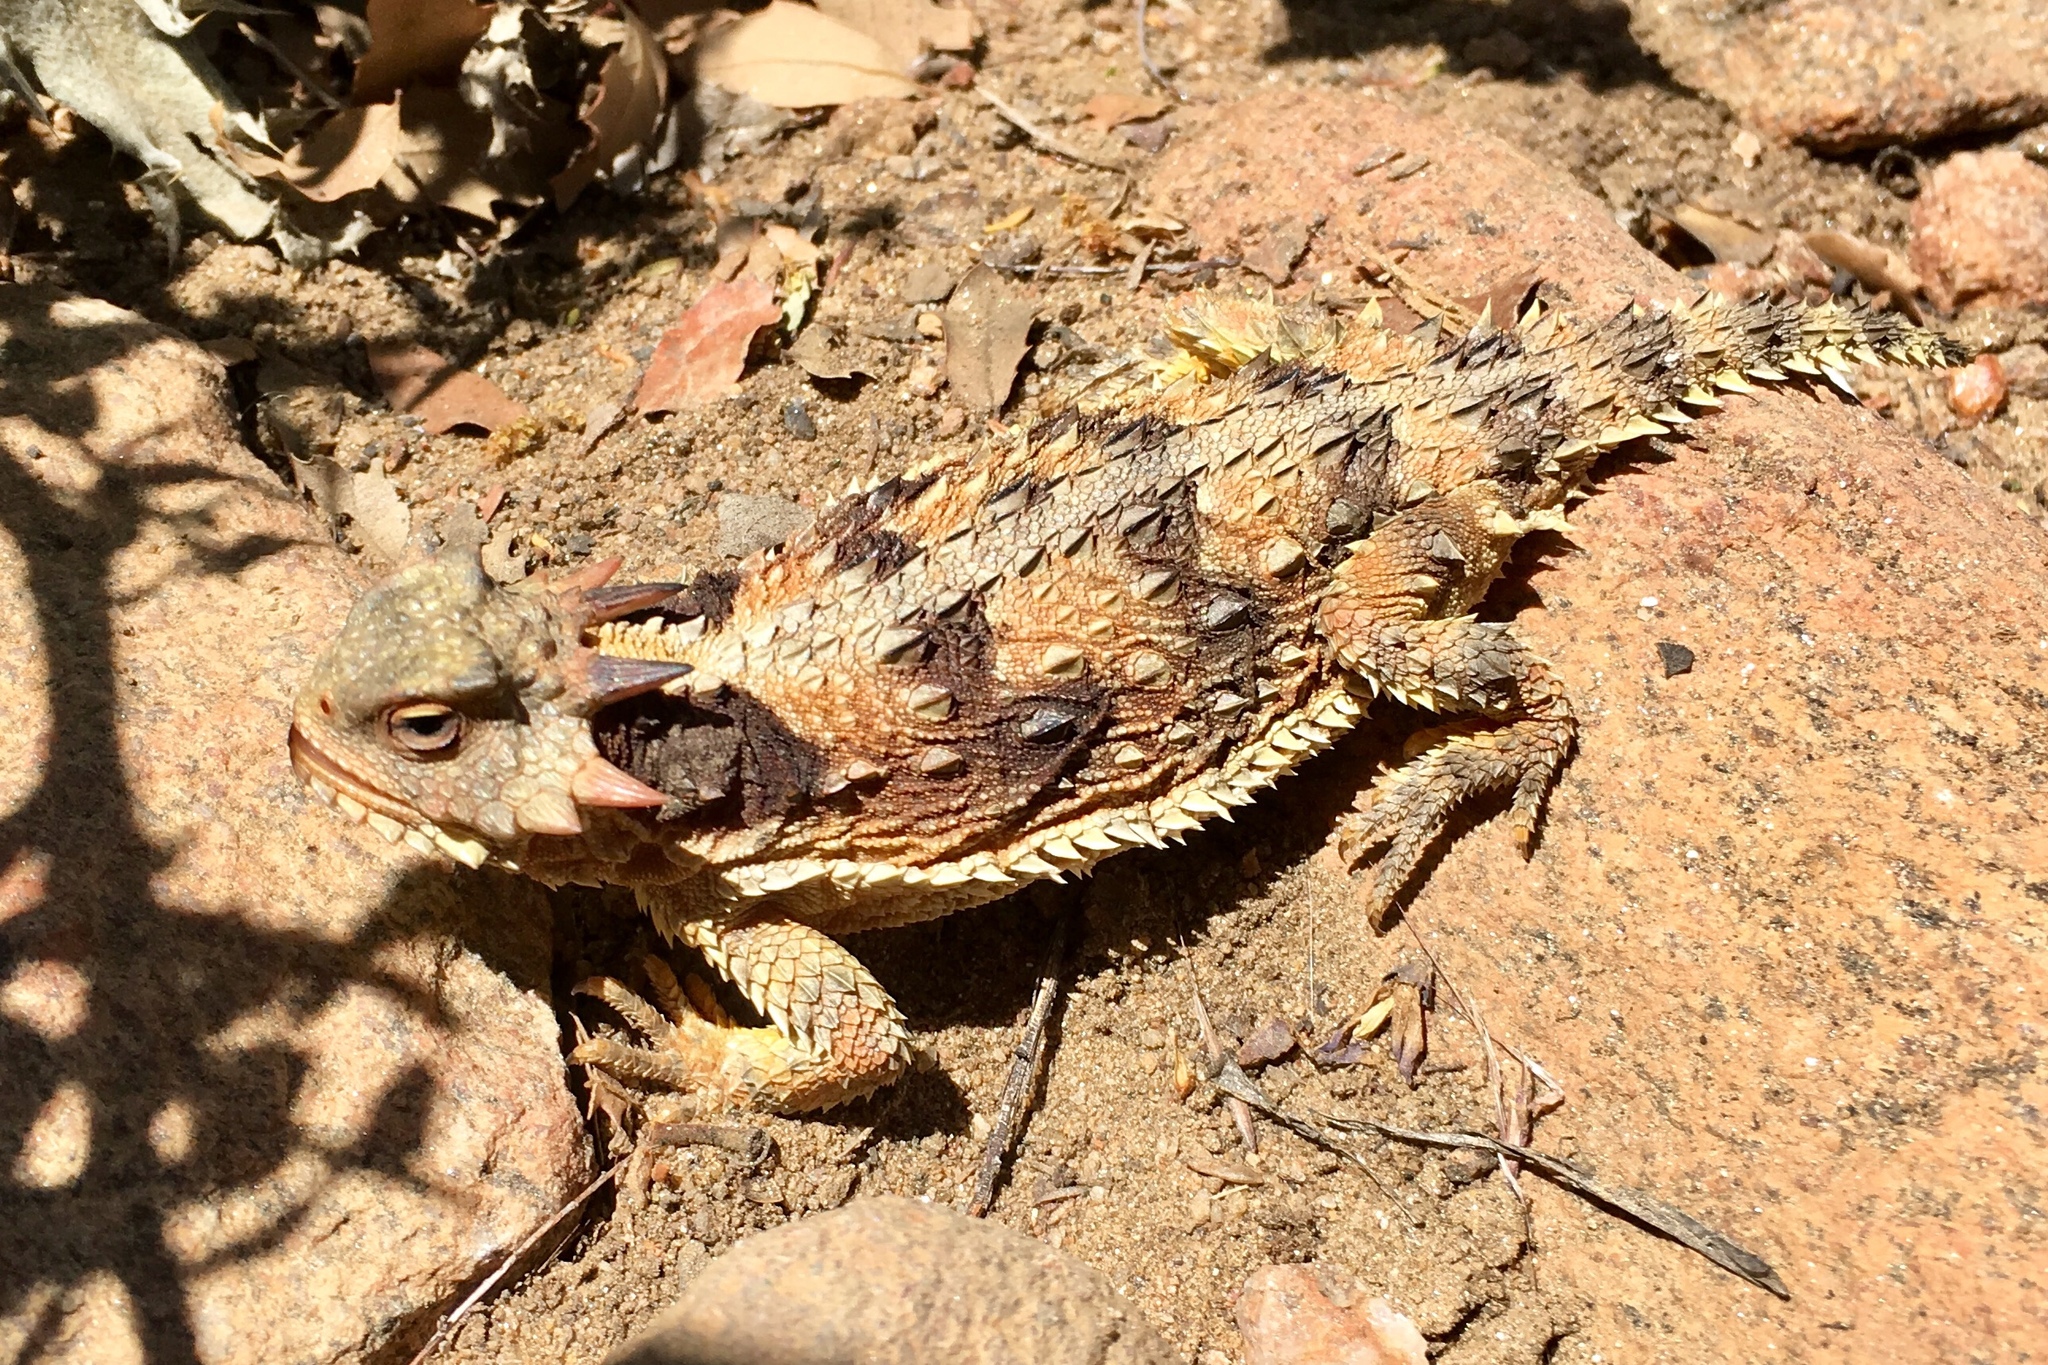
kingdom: Animalia
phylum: Chordata
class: Squamata
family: Phrynosomatidae
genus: Phrynosoma
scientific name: Phrynosoma blainvillii
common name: San diego horned lizard
